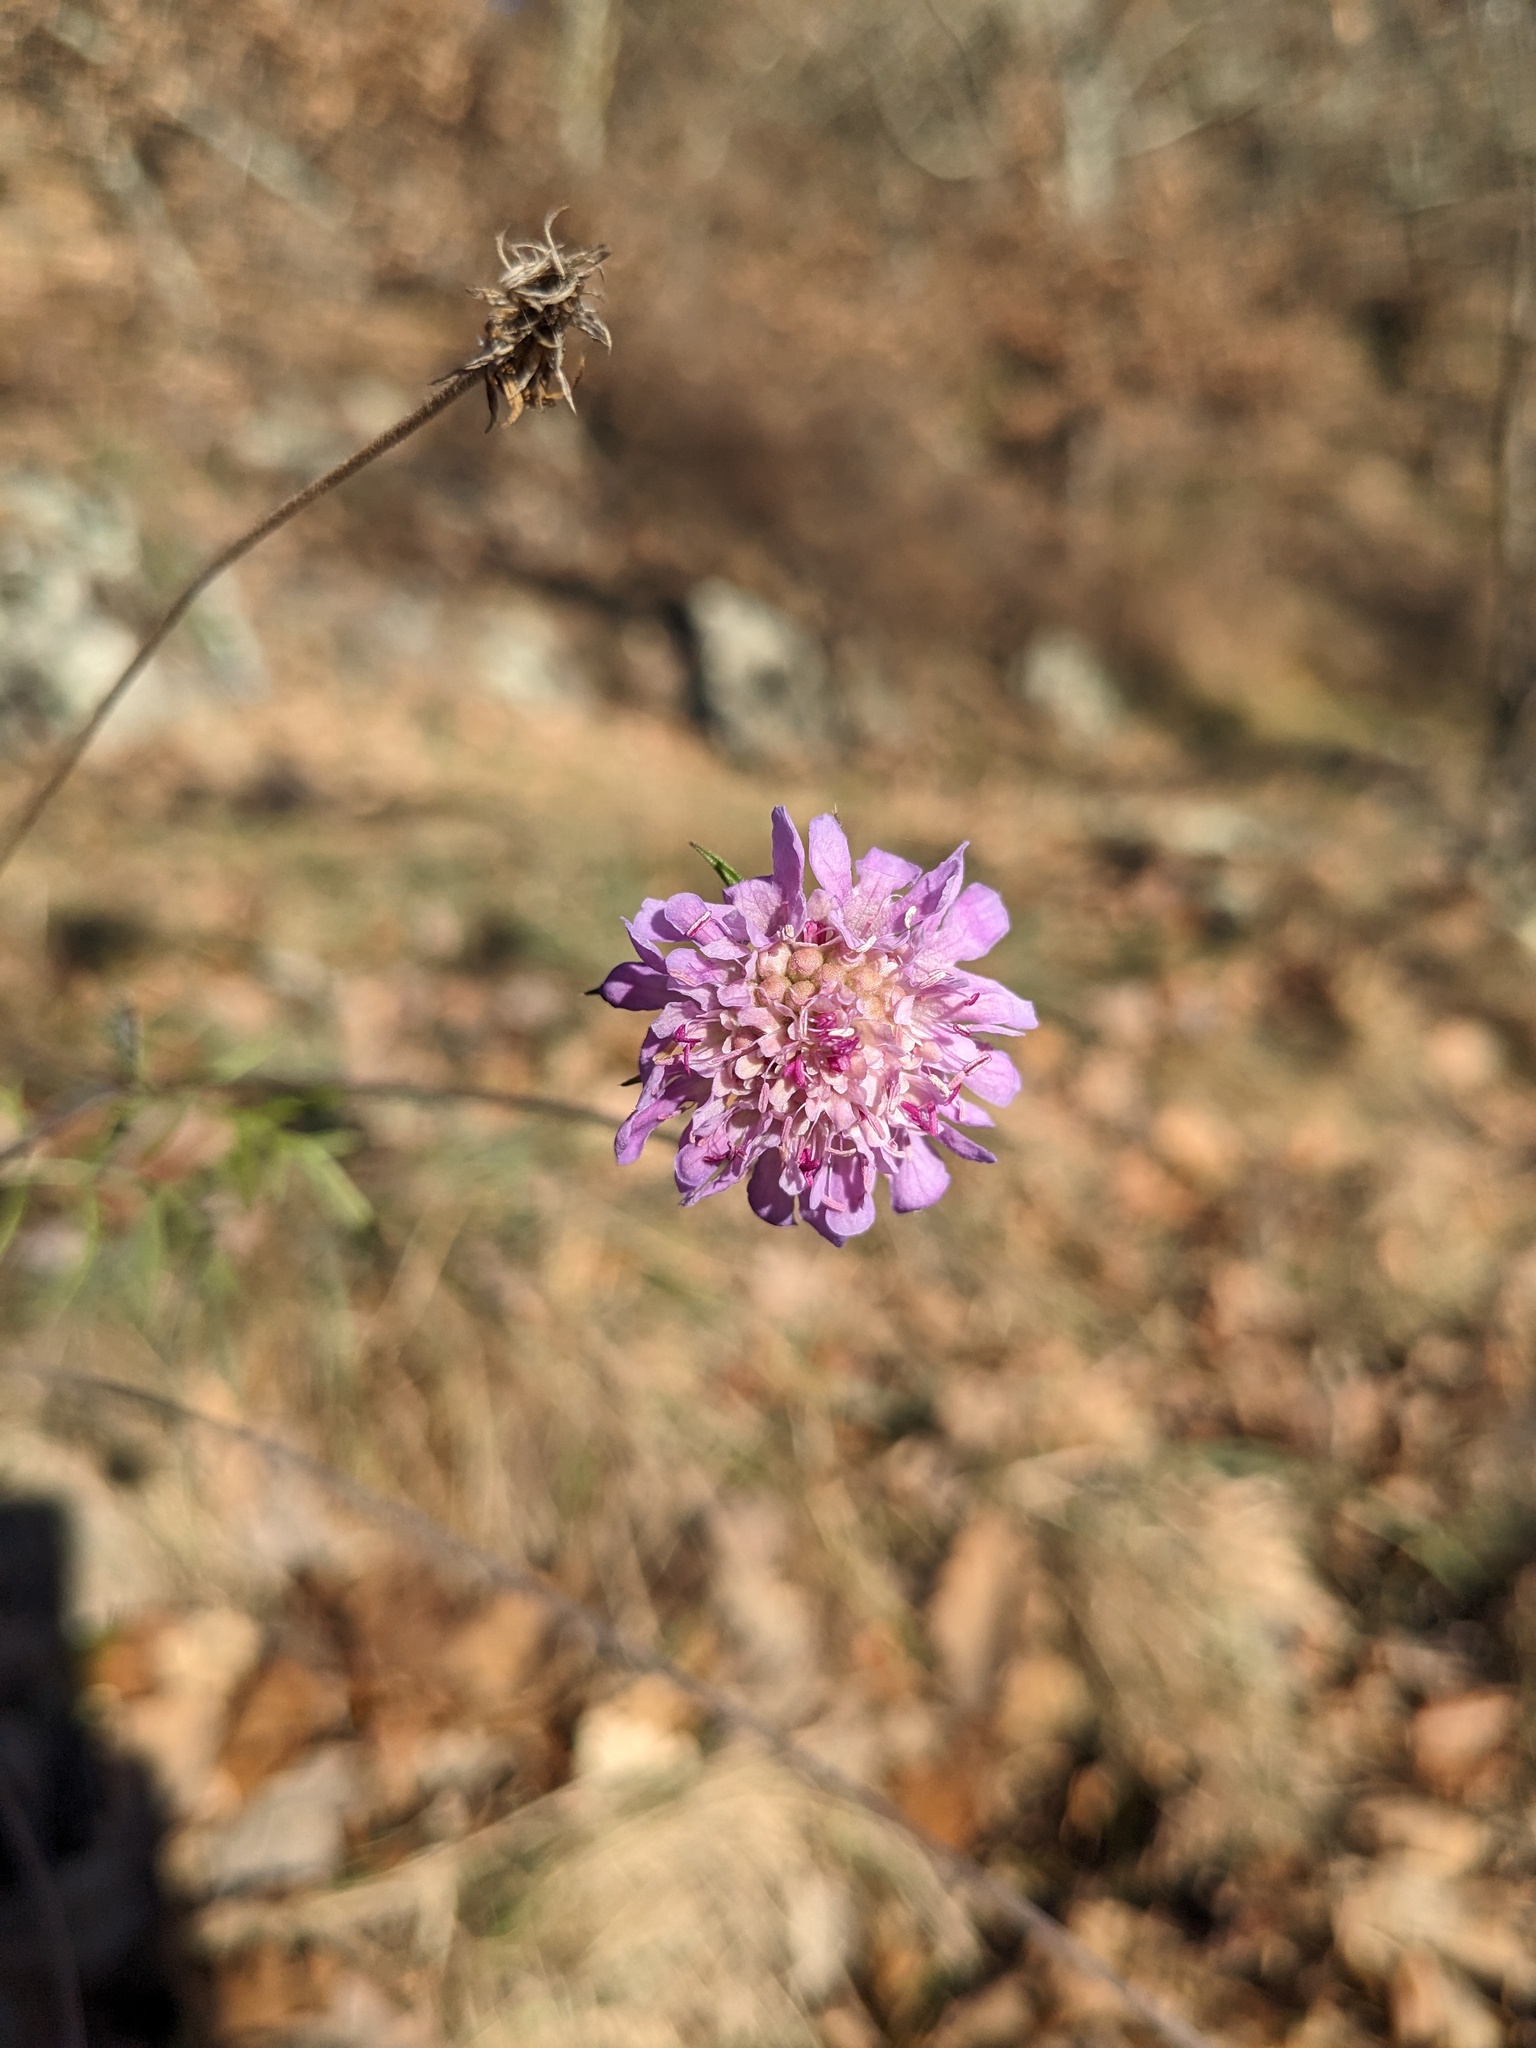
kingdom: Plantae
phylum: Tracheophyta
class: Magnoliopsida
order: Dipsacales
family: Caprifoliaceae
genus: Scabiosa
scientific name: Scabiosa triandra
